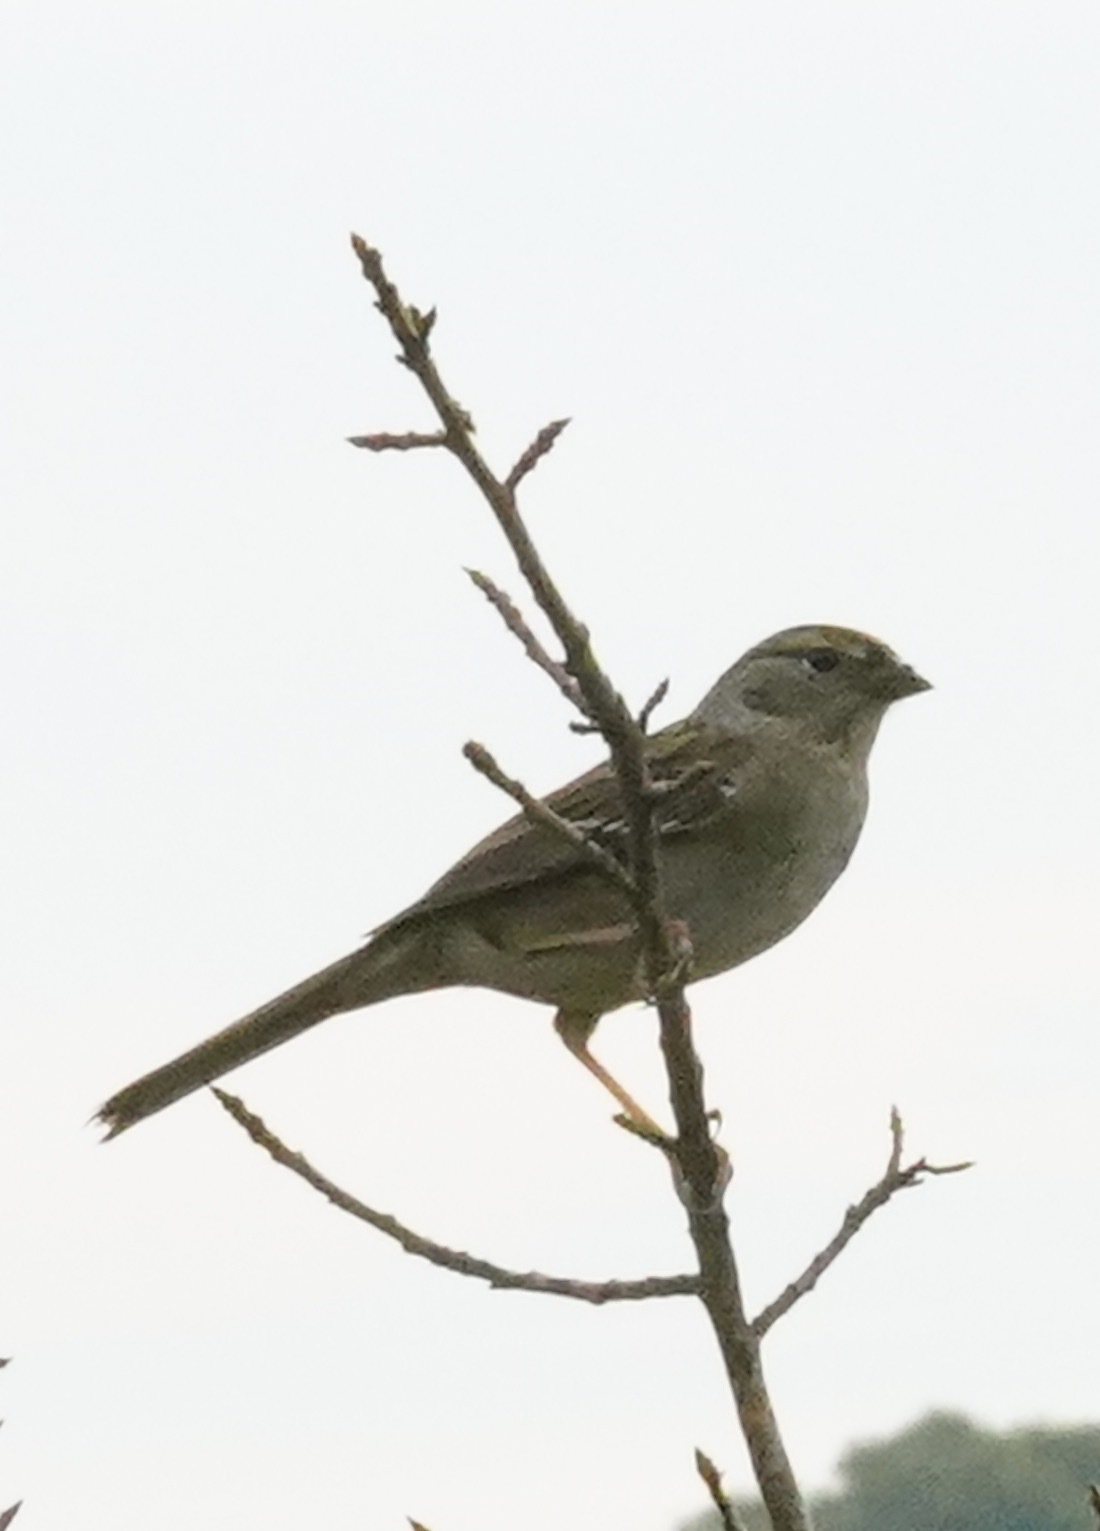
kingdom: Animalia
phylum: Chordata
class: Aves
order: Passeriformes
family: Passerellidae
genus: Zonotrichia
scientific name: Zonotrichia atricapilla
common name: Golden-crowned sparrow
